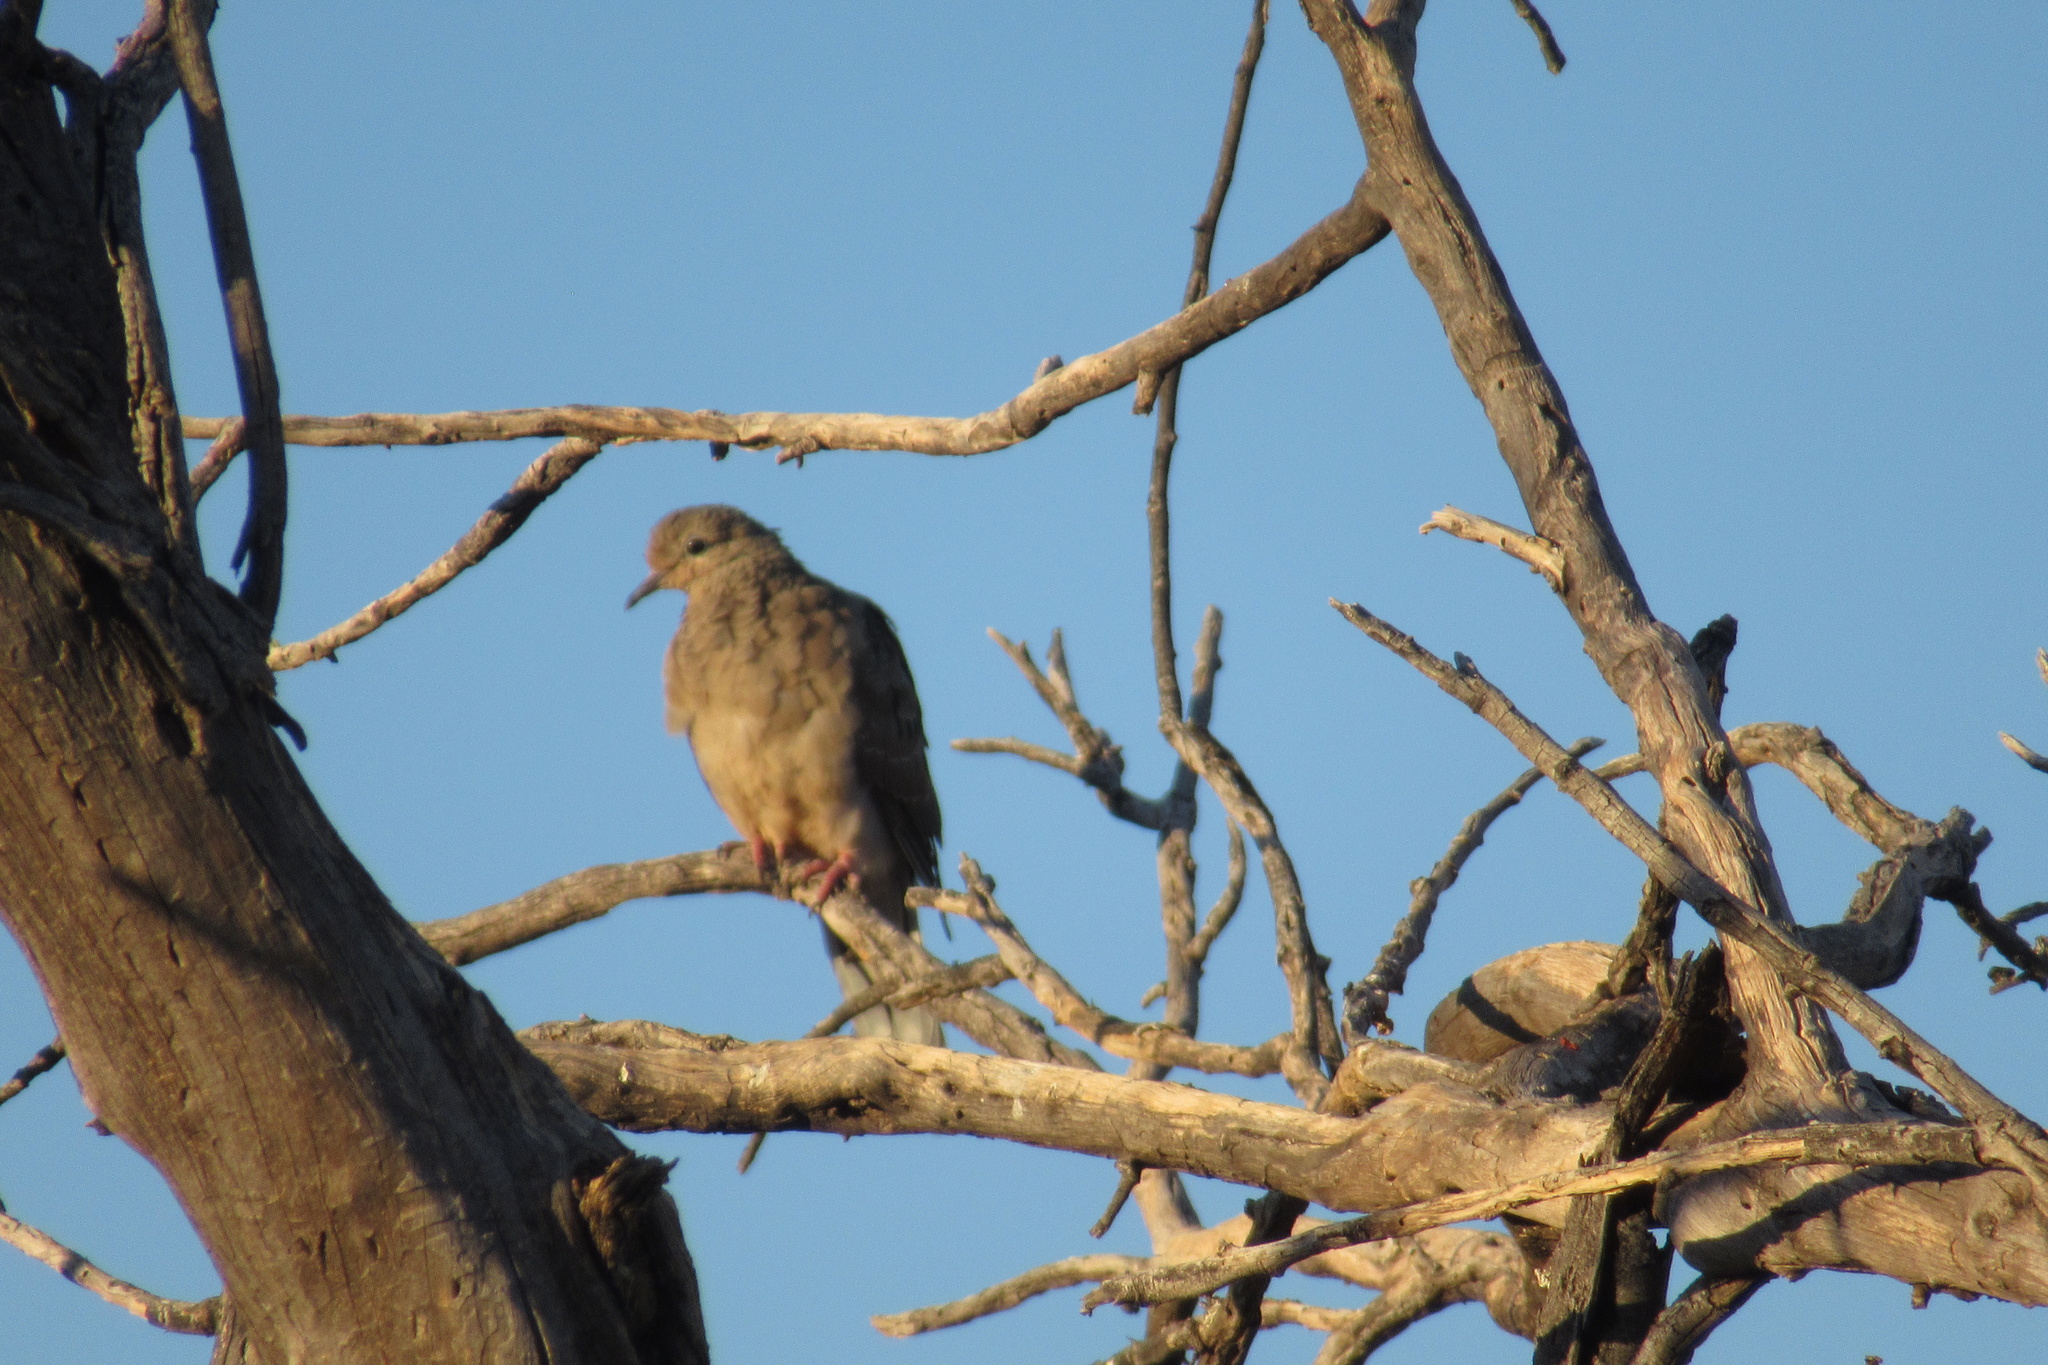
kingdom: Animalia
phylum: Chordata
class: Aves
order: Columbiformes
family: Columbidae
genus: Zenaida
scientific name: Zenaida macroura
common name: Mourning dove
